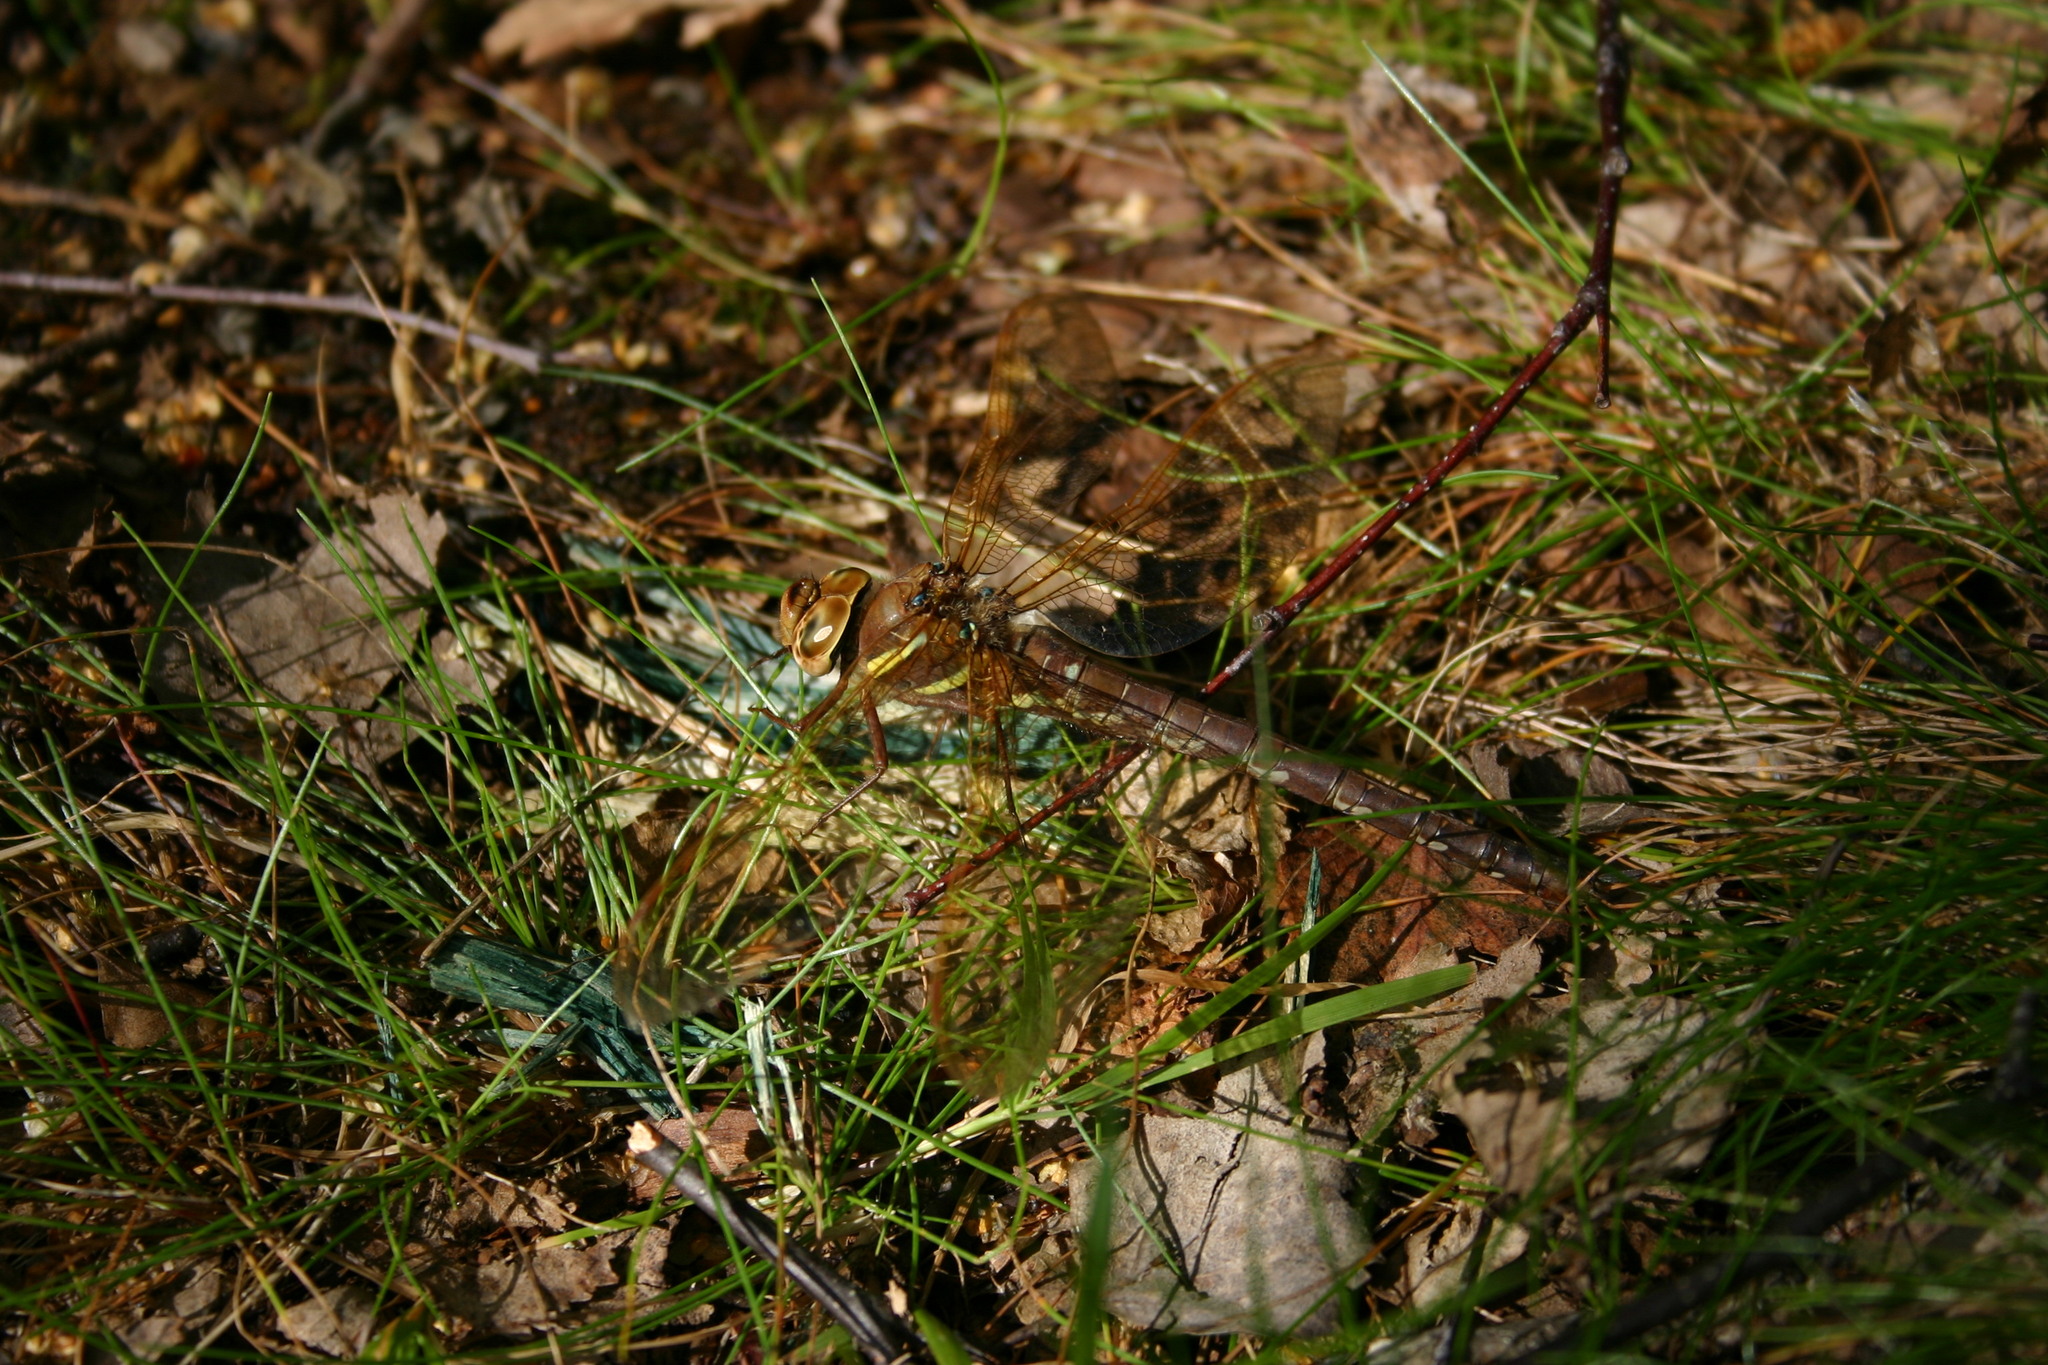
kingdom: Animalia
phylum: Arthropoda
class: Insecta
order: Odonata
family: Aeshnidae
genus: Aeshna
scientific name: Aeshna grandis
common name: Brown hawker
